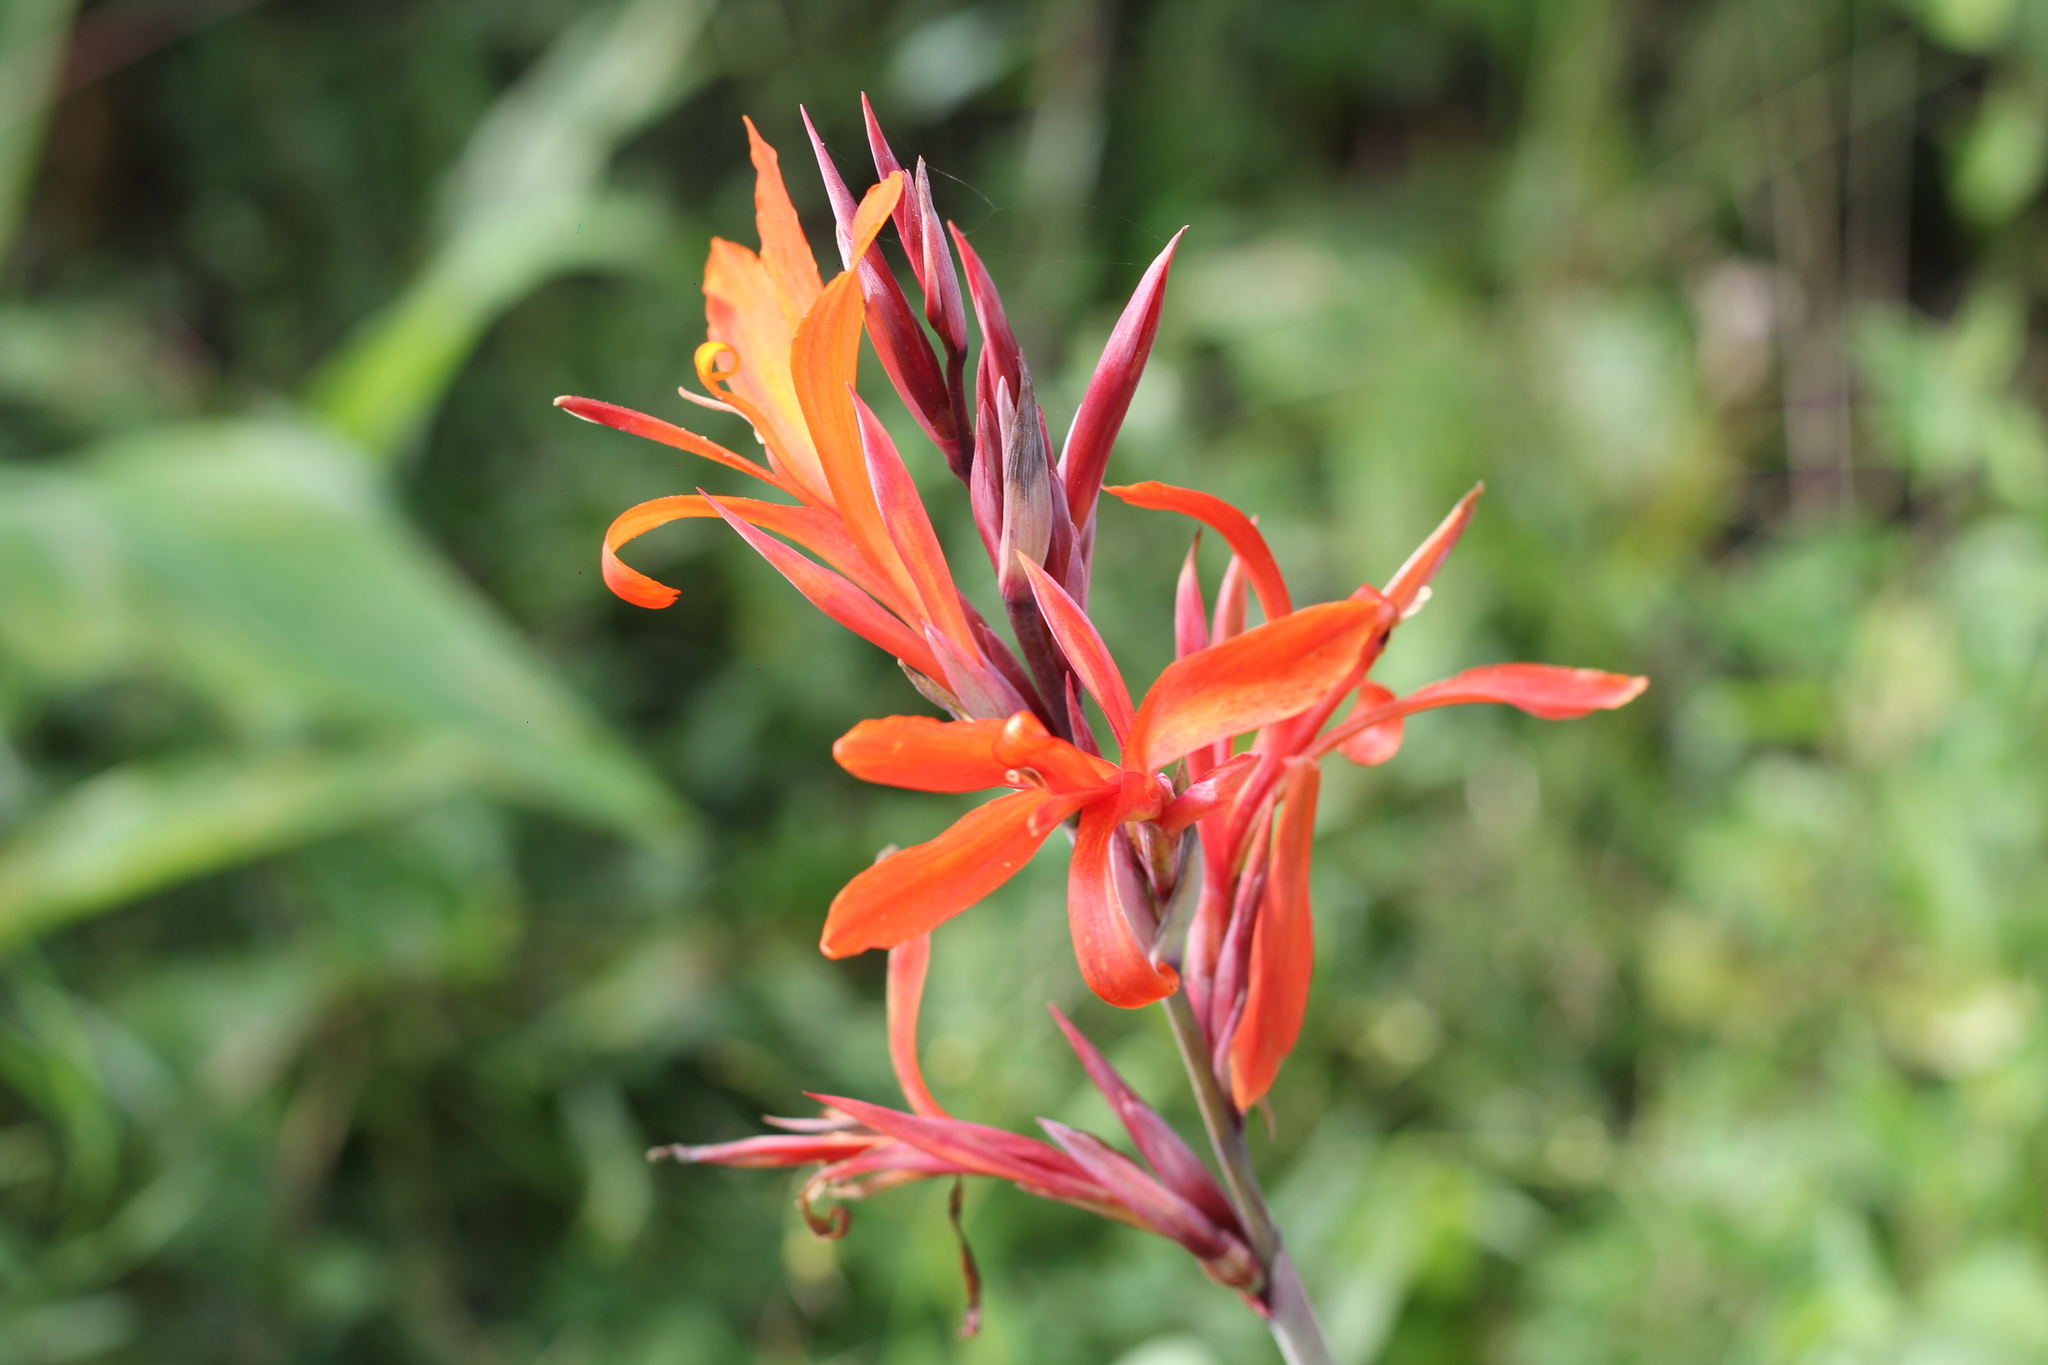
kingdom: Plantae
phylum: Tracheophyta
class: Liliopsida
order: Zingiberales
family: Cannaceae
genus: Canna
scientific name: Canna indica
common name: Indian shot
